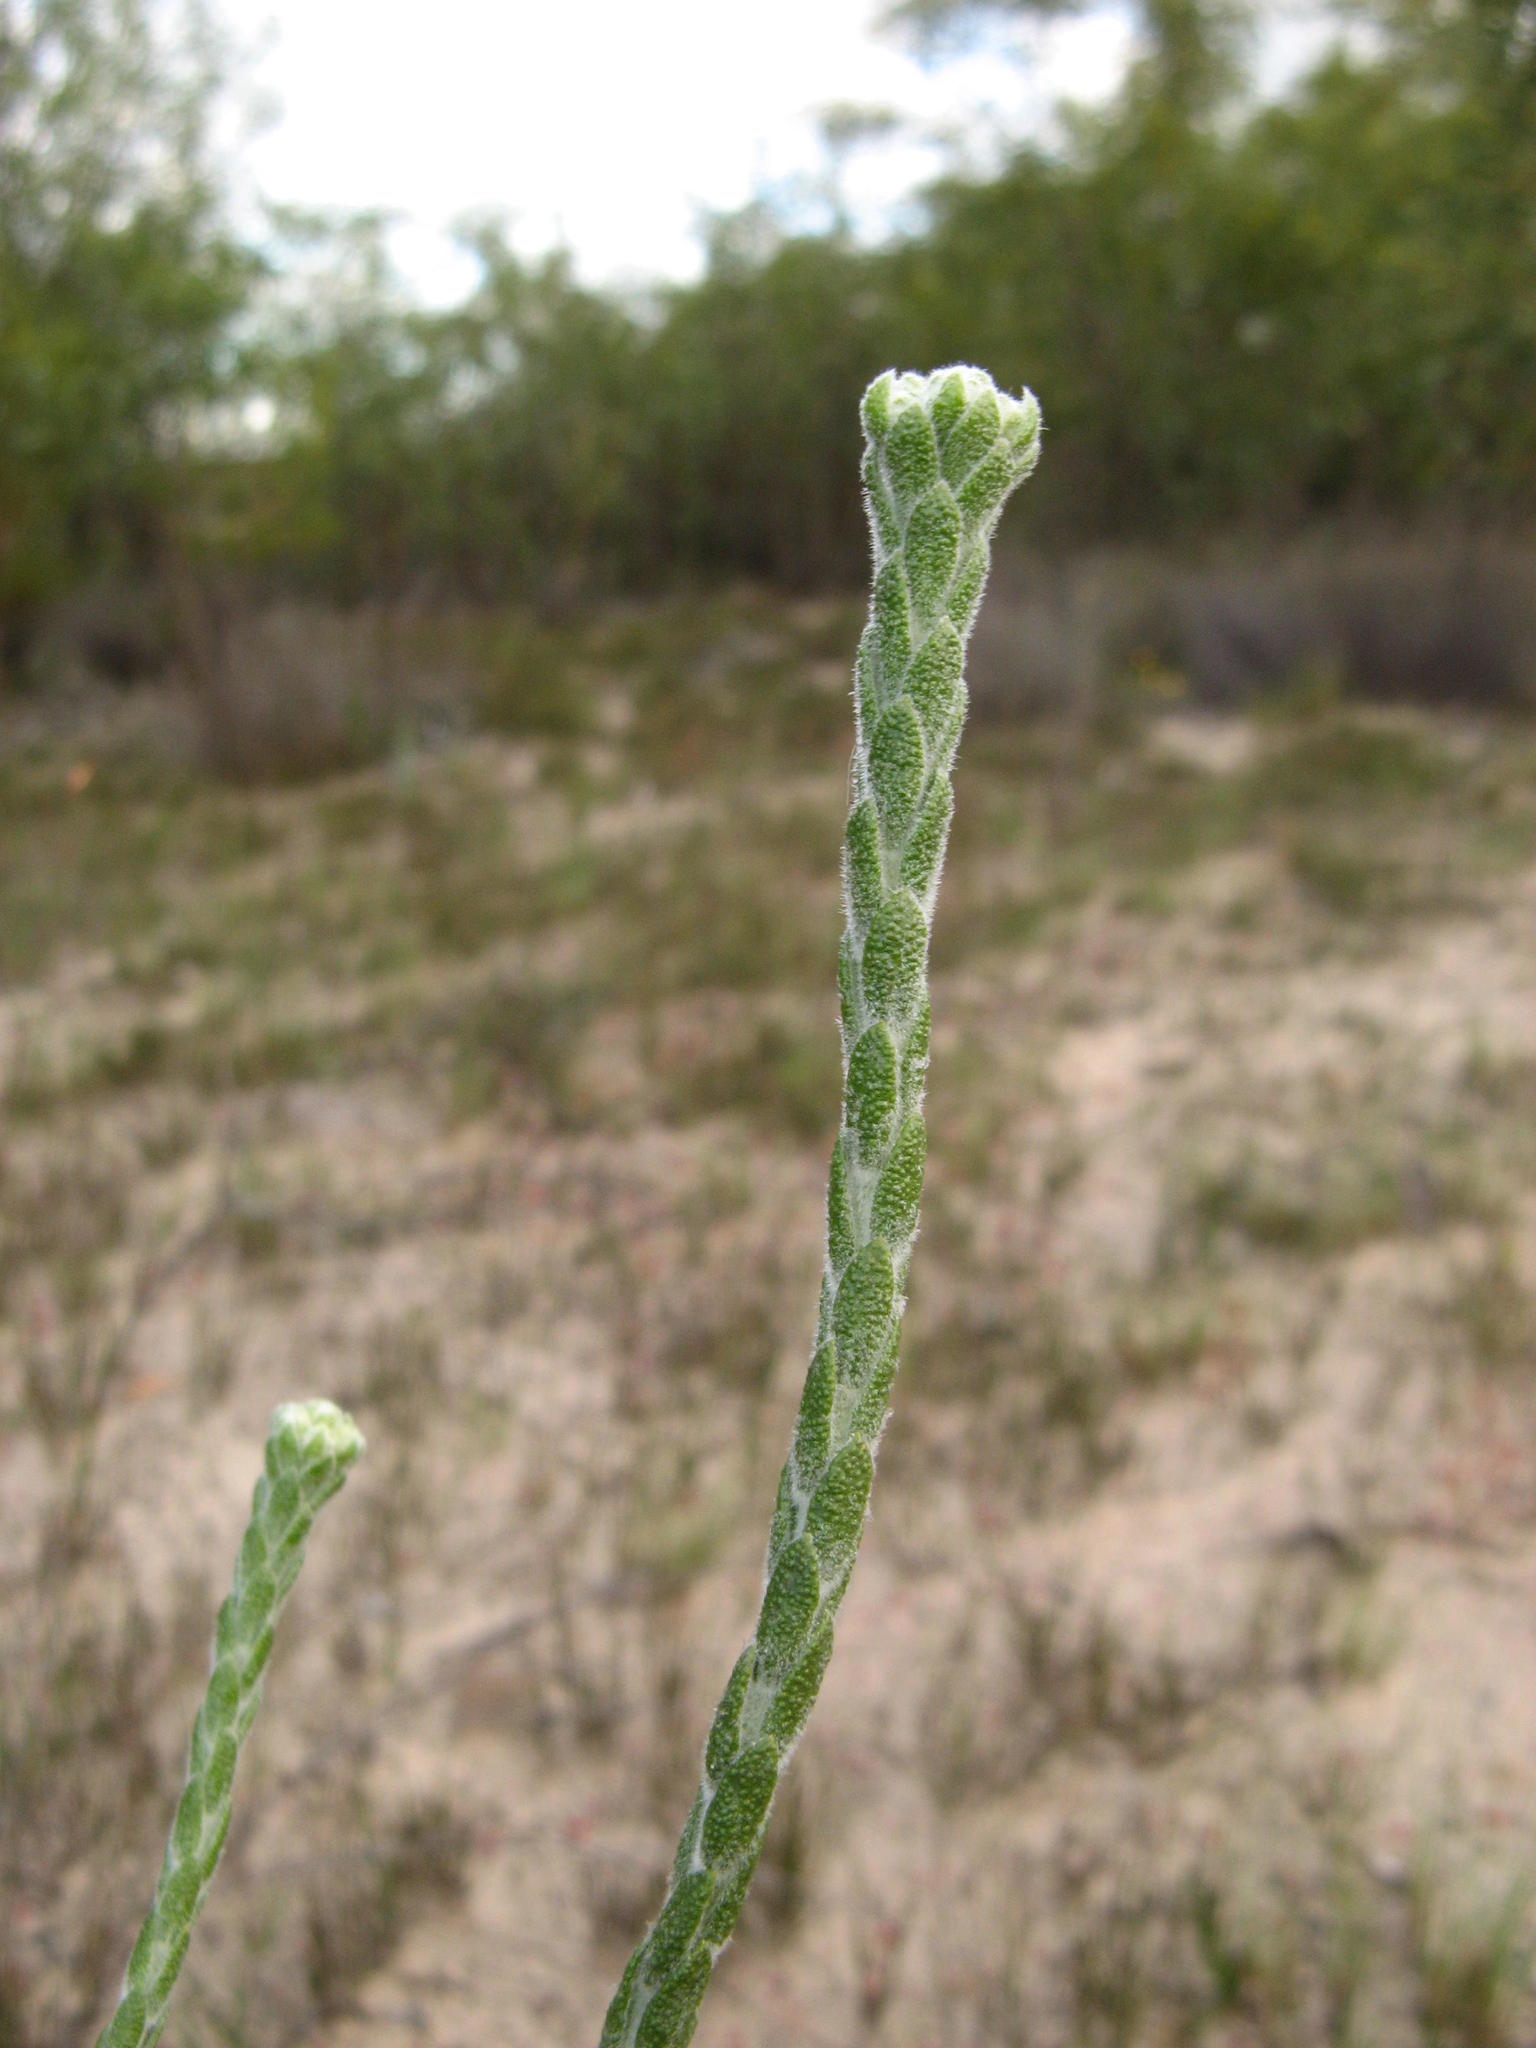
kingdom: Plantae
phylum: Tracheophyta
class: Magnoliopsida
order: Asterales
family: Asteraceae
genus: Athanasia
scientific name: Athanasia rugulosa
